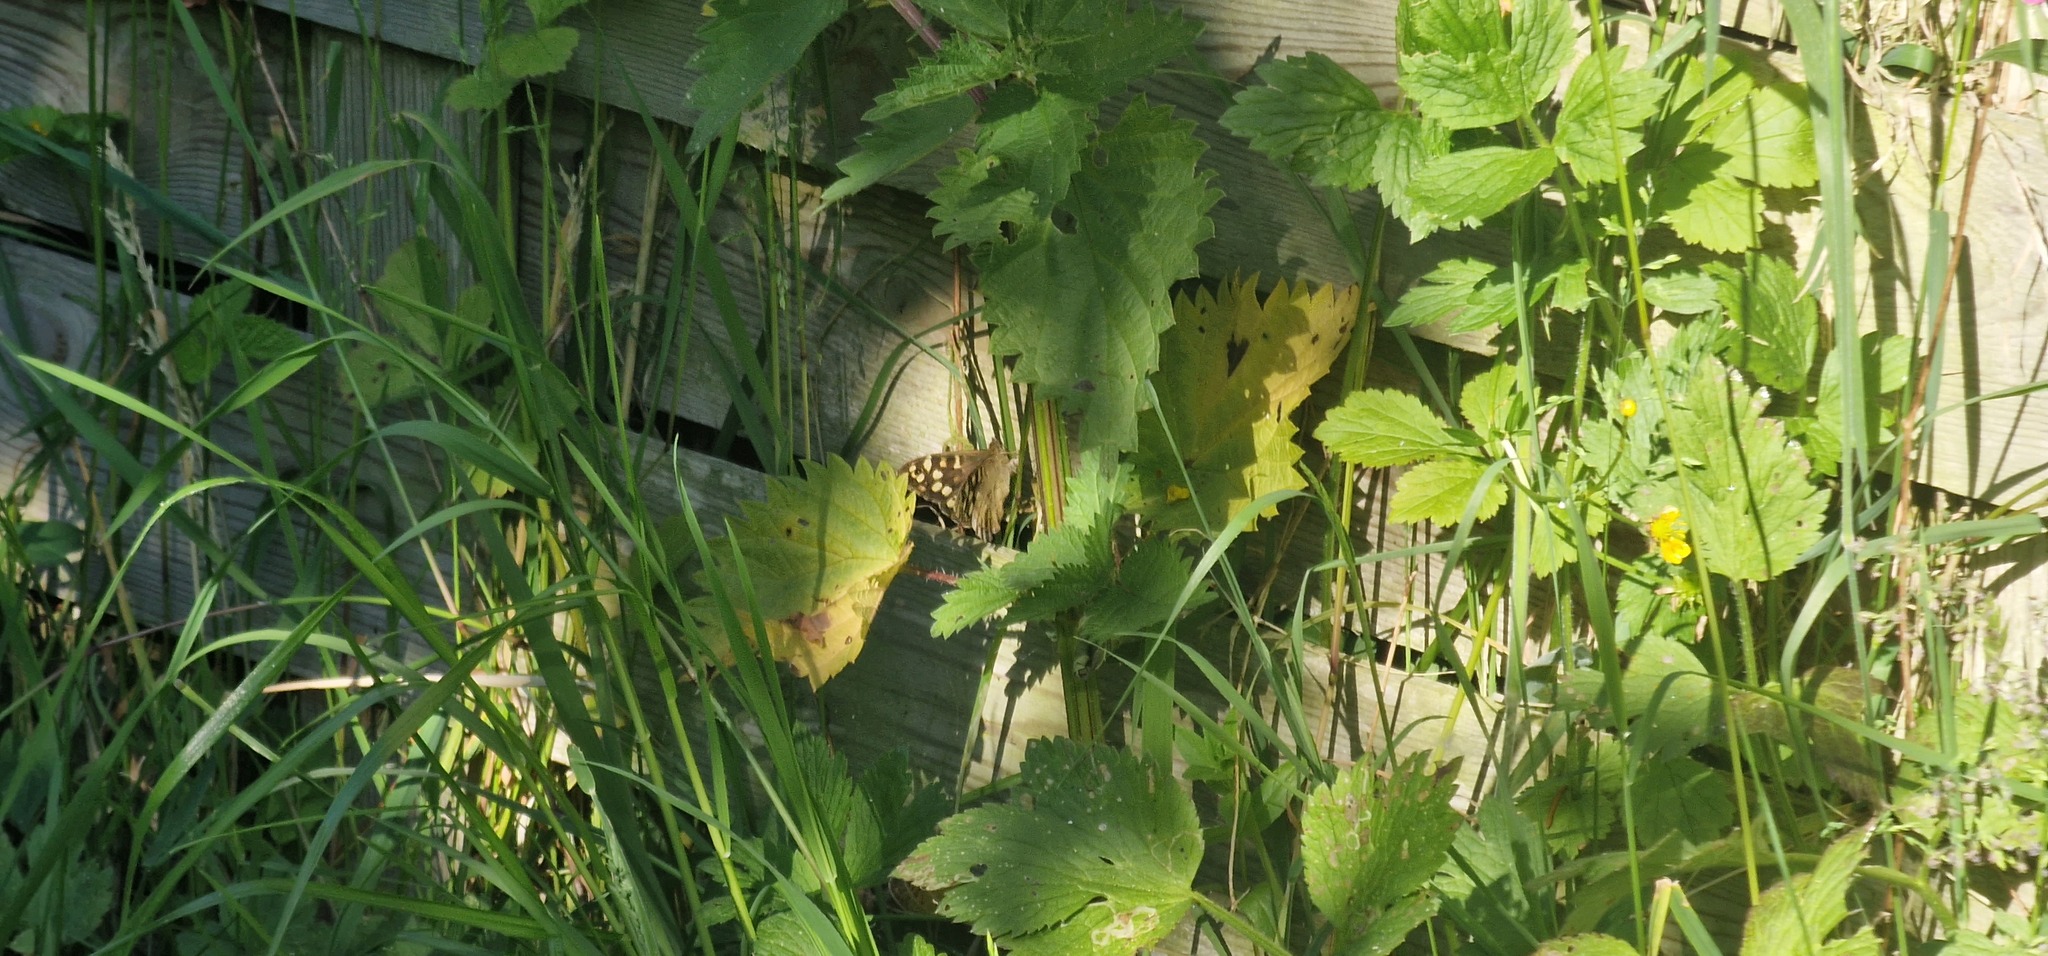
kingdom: Animalia
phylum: Arthropoda
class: Insecta
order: Lepidoptera
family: Nymphalidae
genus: Pararge
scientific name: Pararge aegeria
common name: Speckled wood
